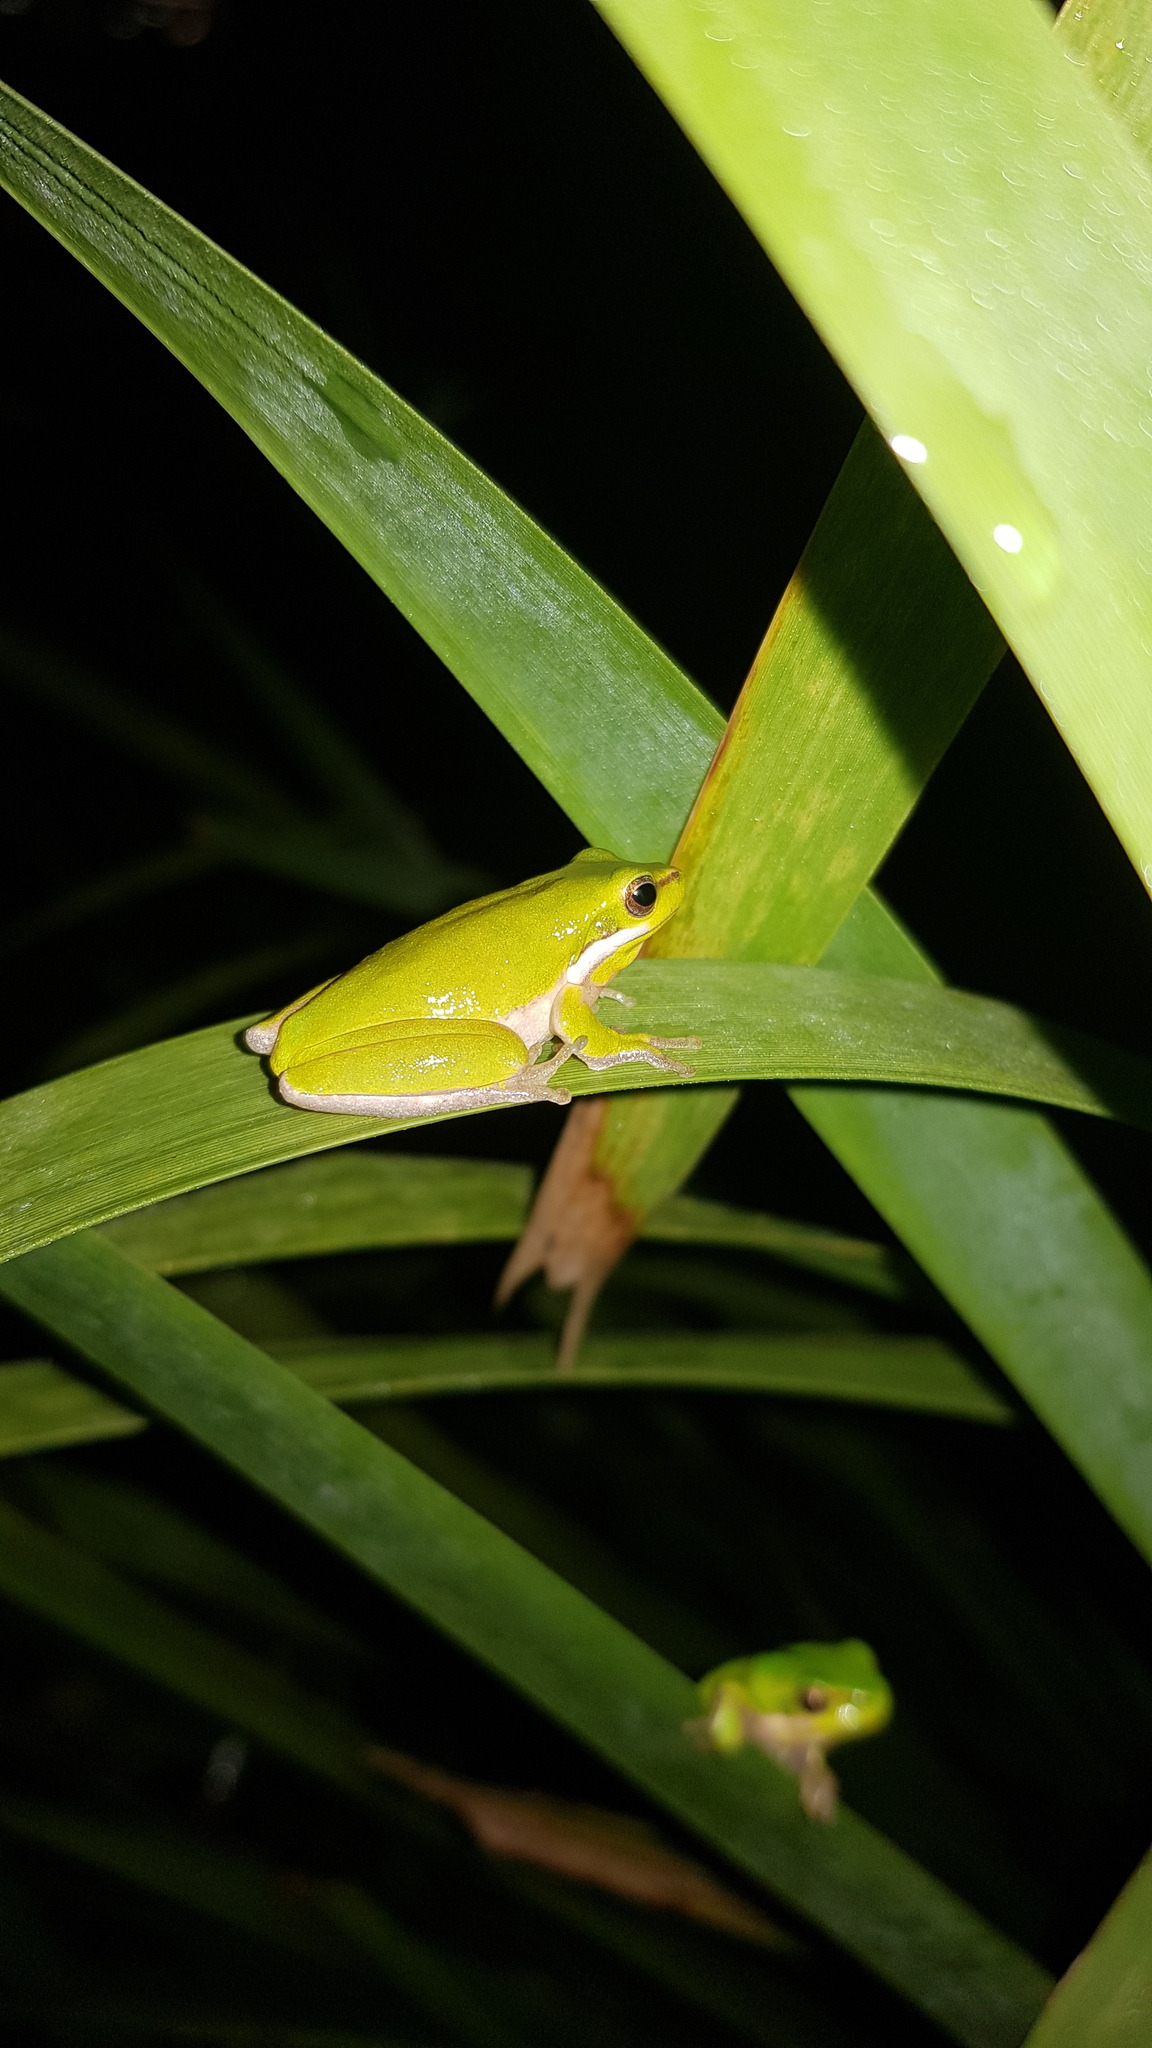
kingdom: Animalia
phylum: Chordata
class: Amphibia
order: Anura
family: Pelodryadidae
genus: Litoria
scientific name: Litoria fallax
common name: Eastern dwarf treefrog
